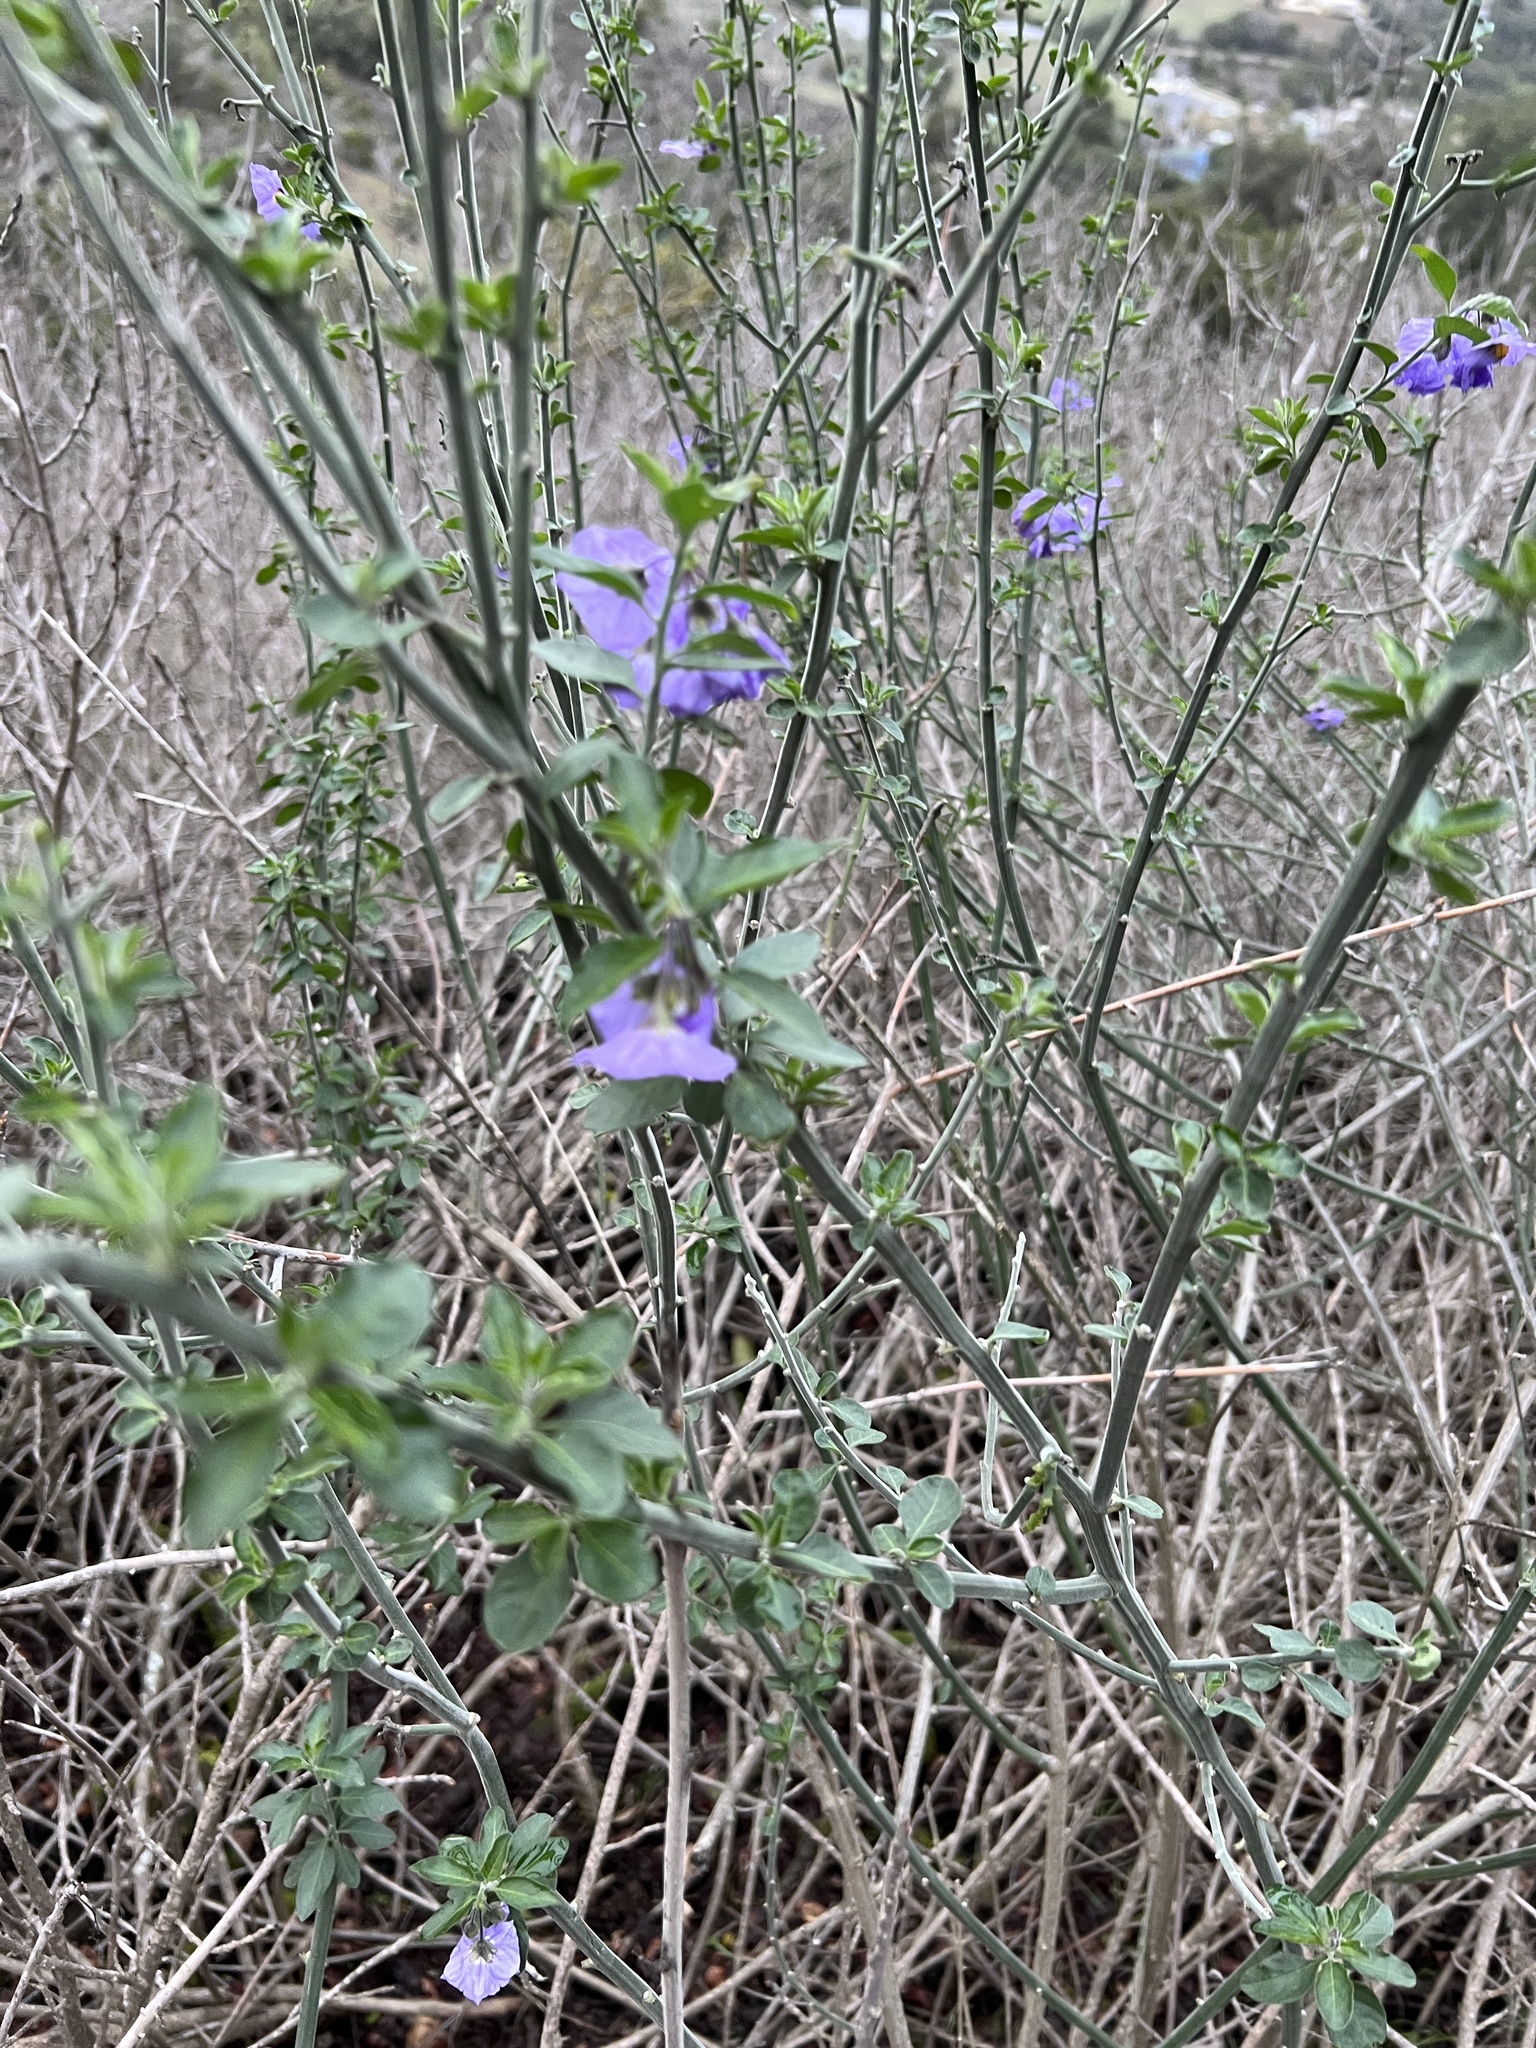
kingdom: Plantae
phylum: Tracheophyta
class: Magnoliopsida
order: Solanales
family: Solanaceae
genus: Solanum
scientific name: Solanum umbelliferum
